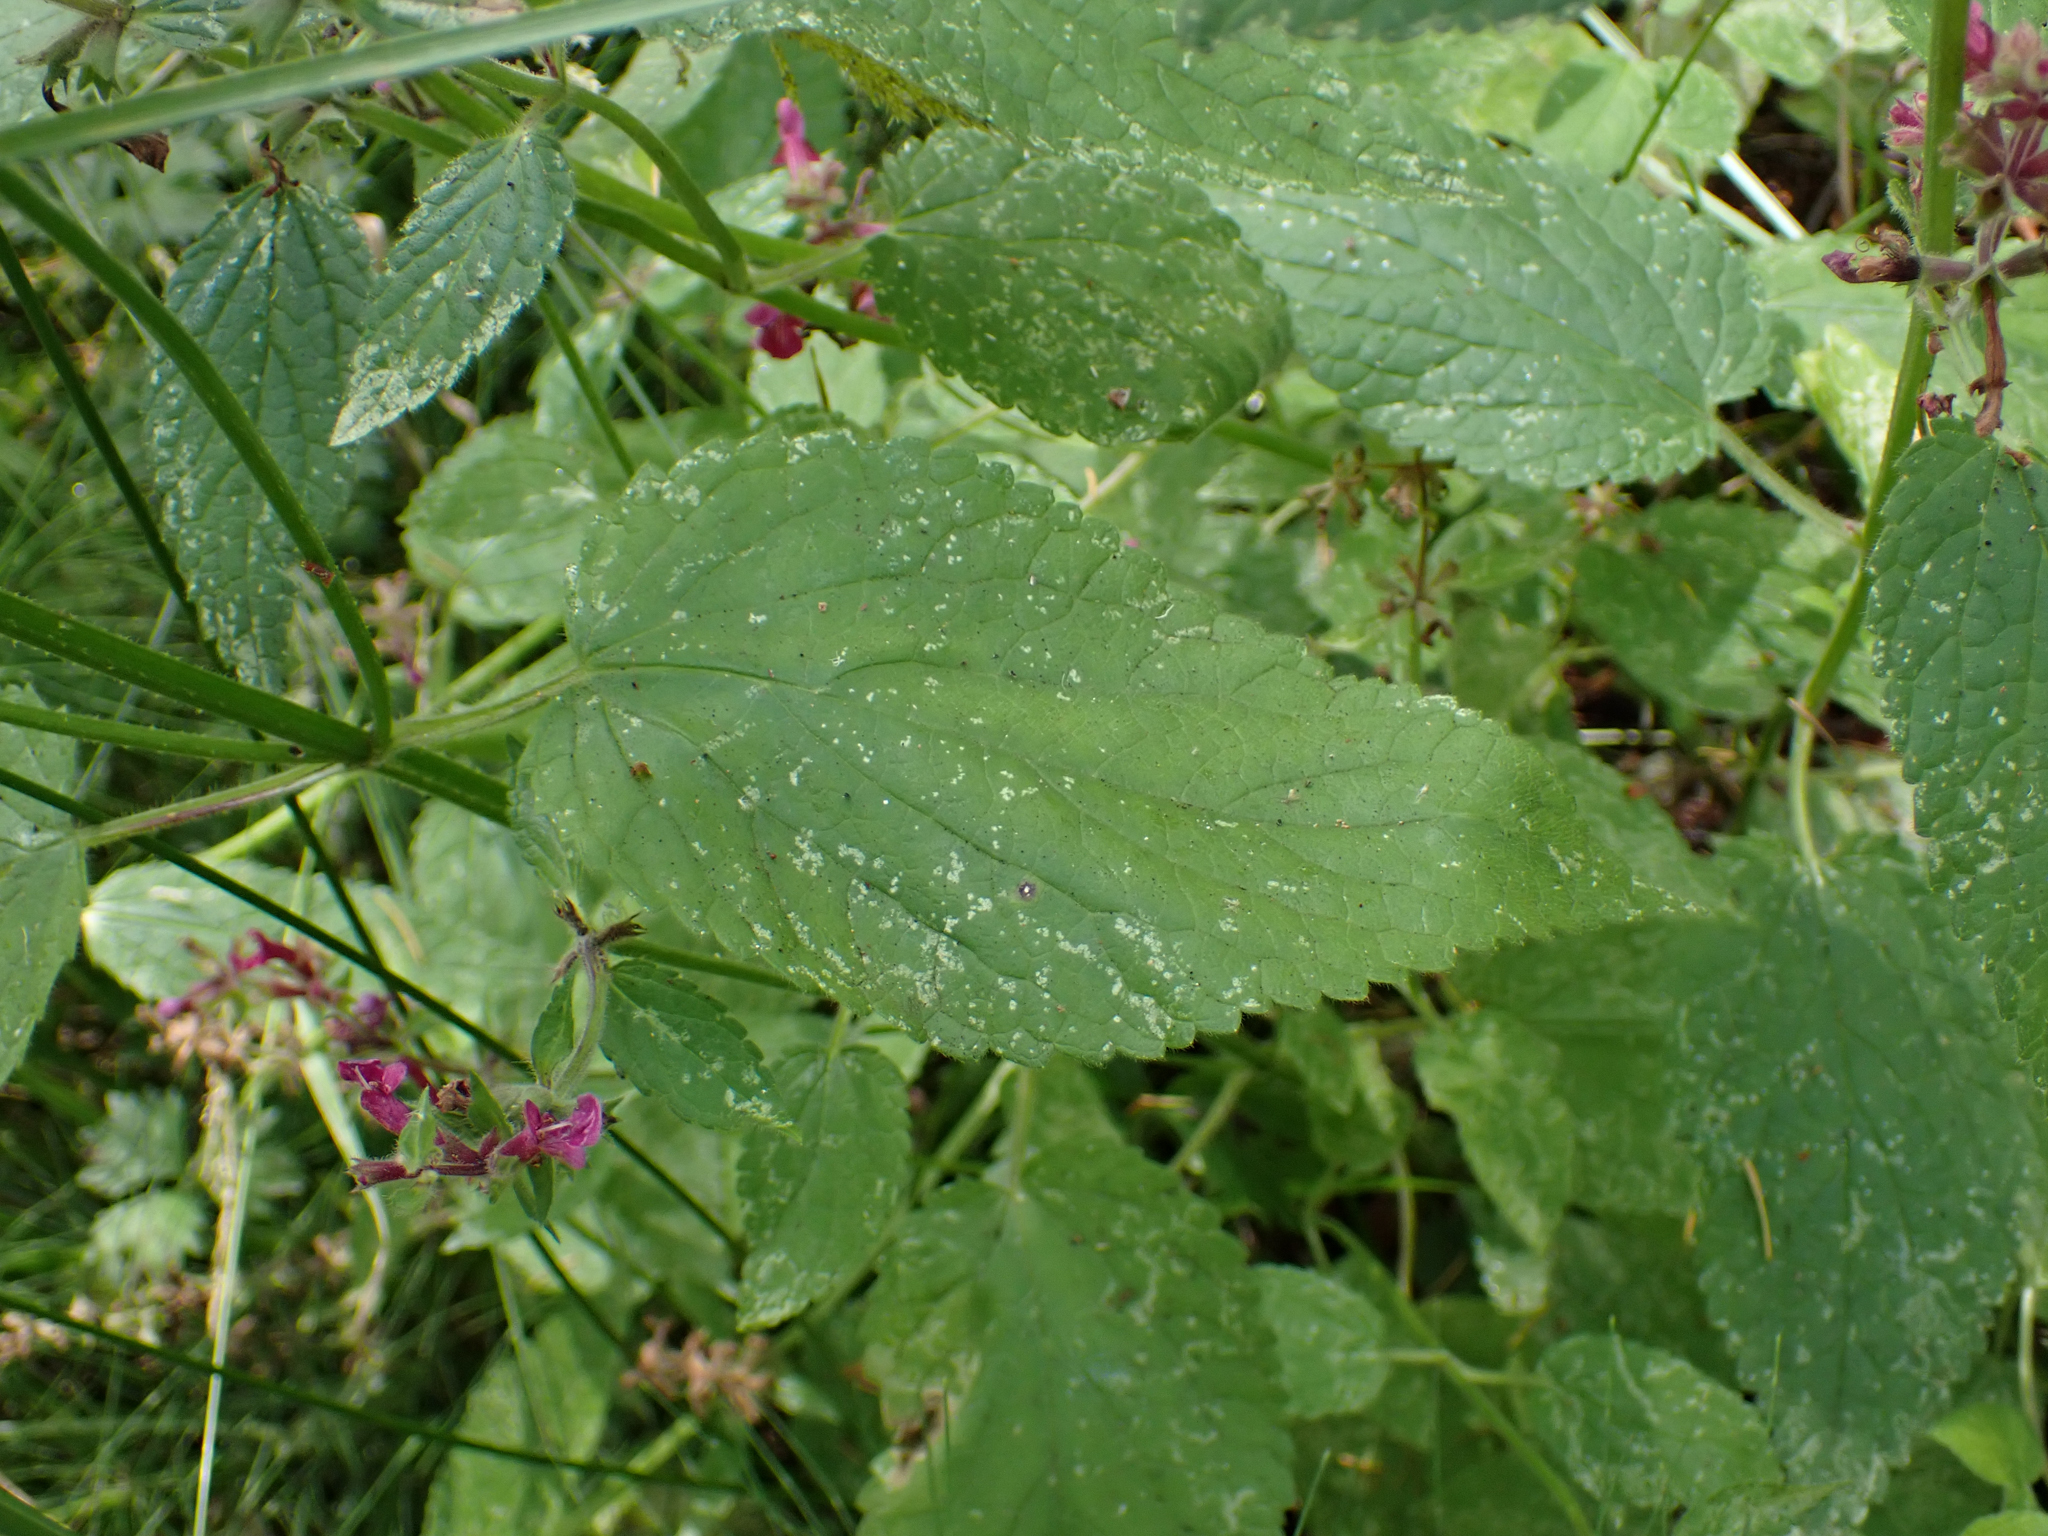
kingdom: Plantae
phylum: Tracheophyta
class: Magnoliopsida
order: Lamiales
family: Lamiaceae
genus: Stachys
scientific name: Stachys chamissonis
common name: Coastal hedge-nettle
